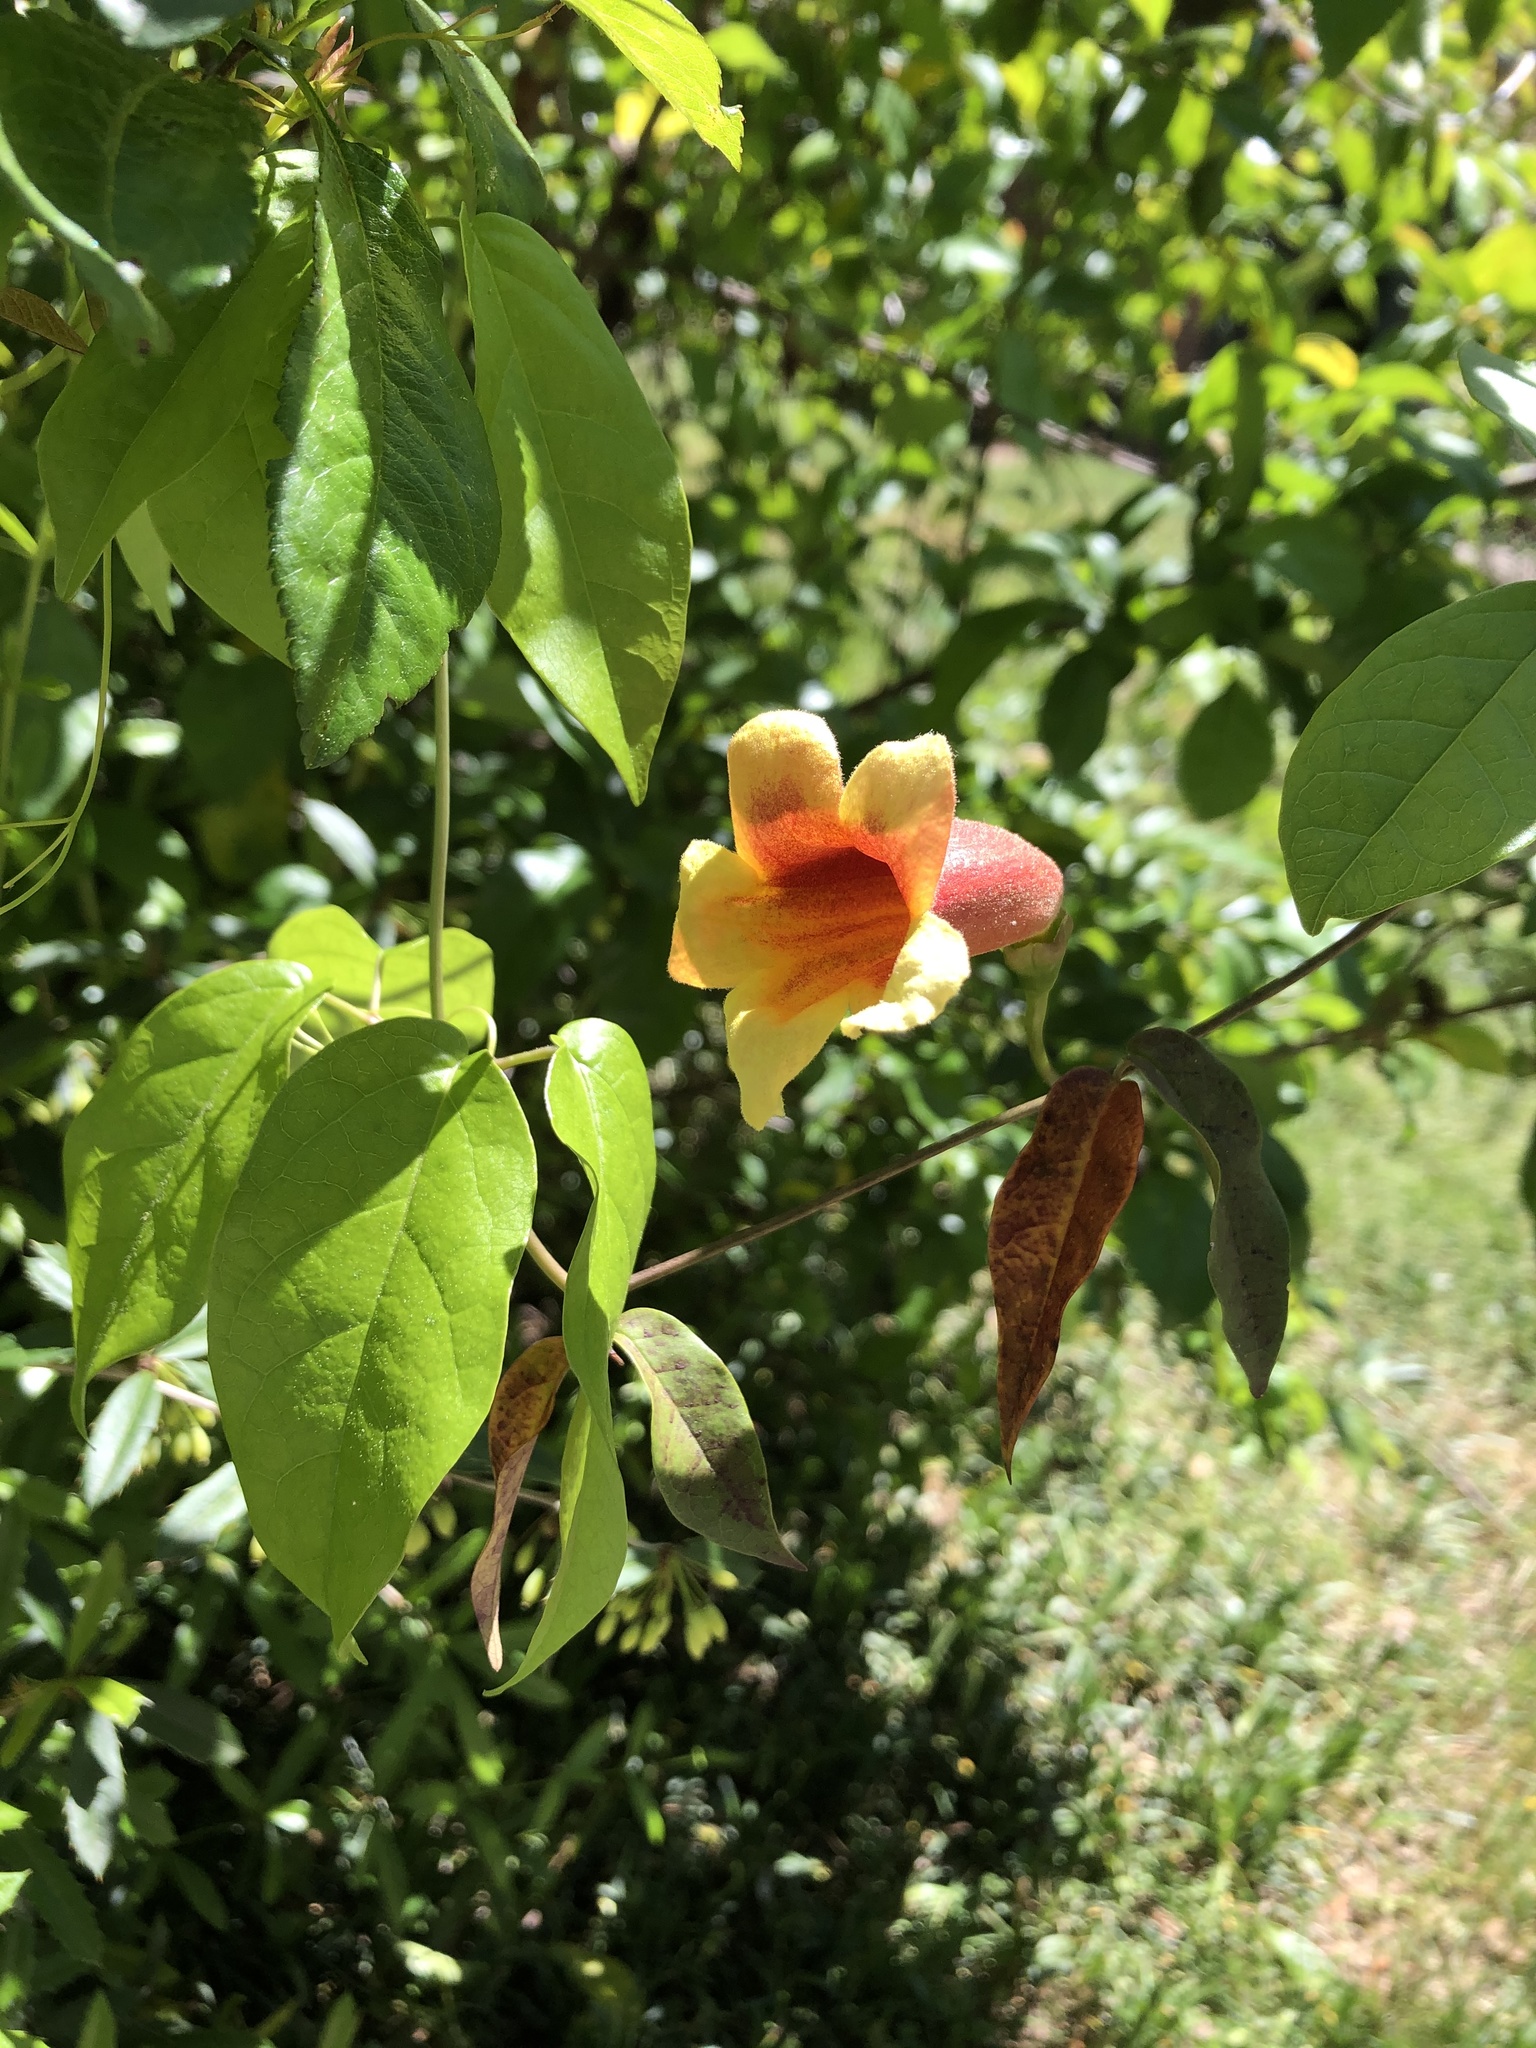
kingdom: Plantae
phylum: Tracheophyta
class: Magnoliopsida
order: Lamiales
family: Bignoniaceae
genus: Bignonia
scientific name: Bignonia capreolata
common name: Crossvine
